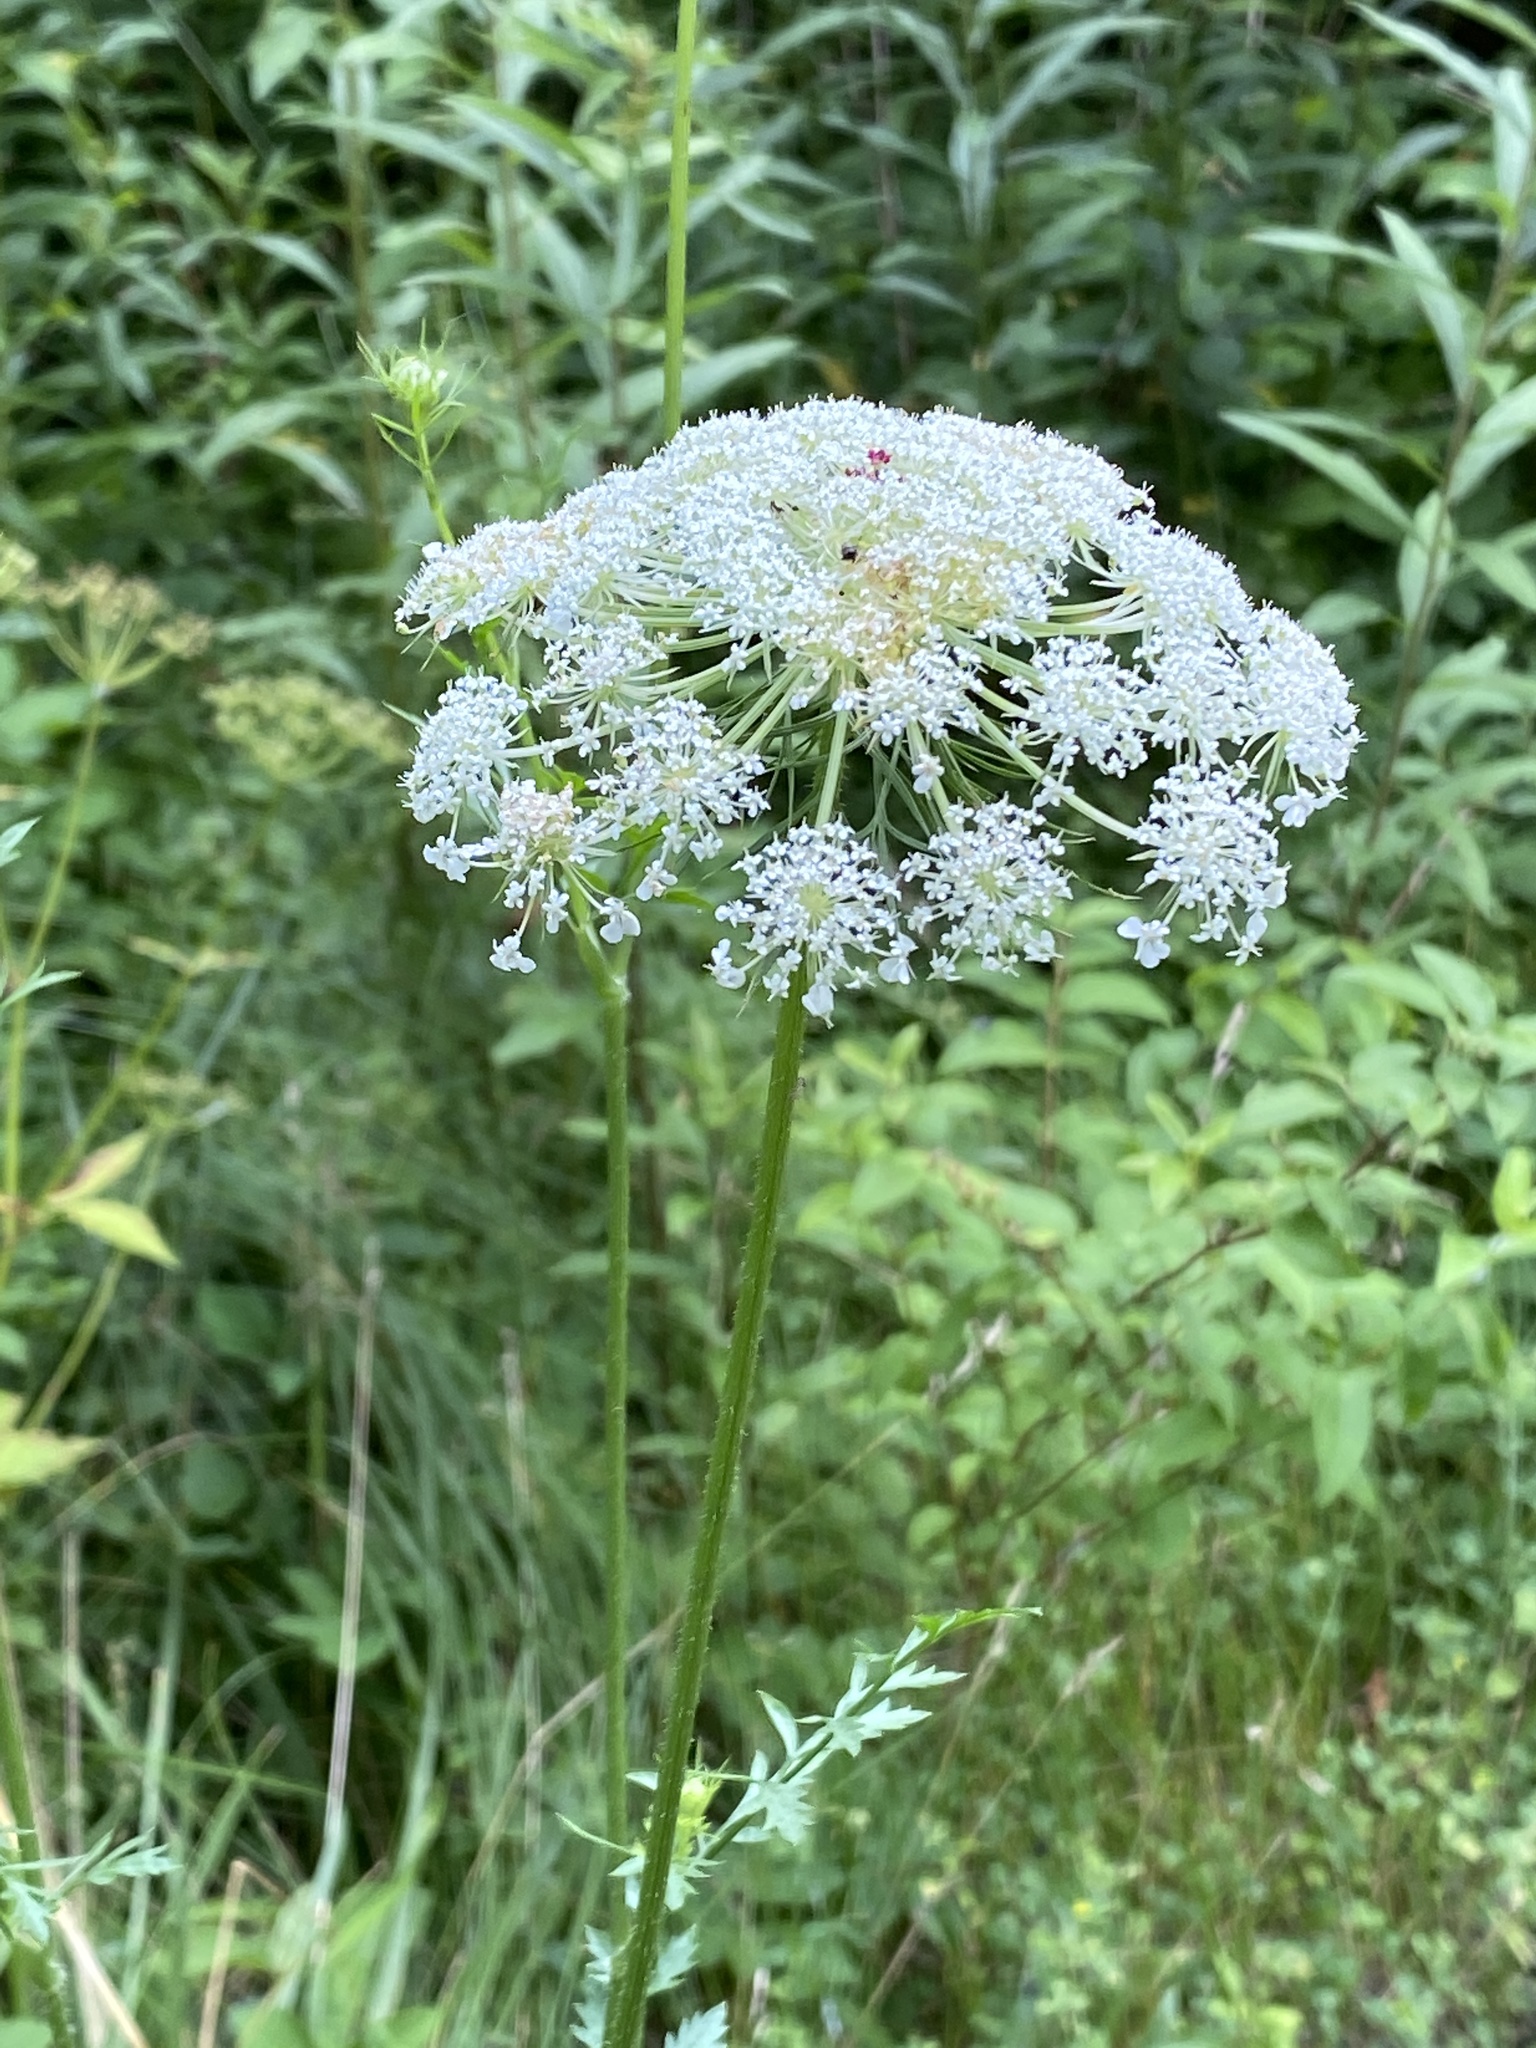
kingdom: Plantae
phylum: Tracheophyta
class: Magnoliopsida
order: Apiales
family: Apiaceae
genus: Daucus
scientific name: Daucus carota
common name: Wild carrot
